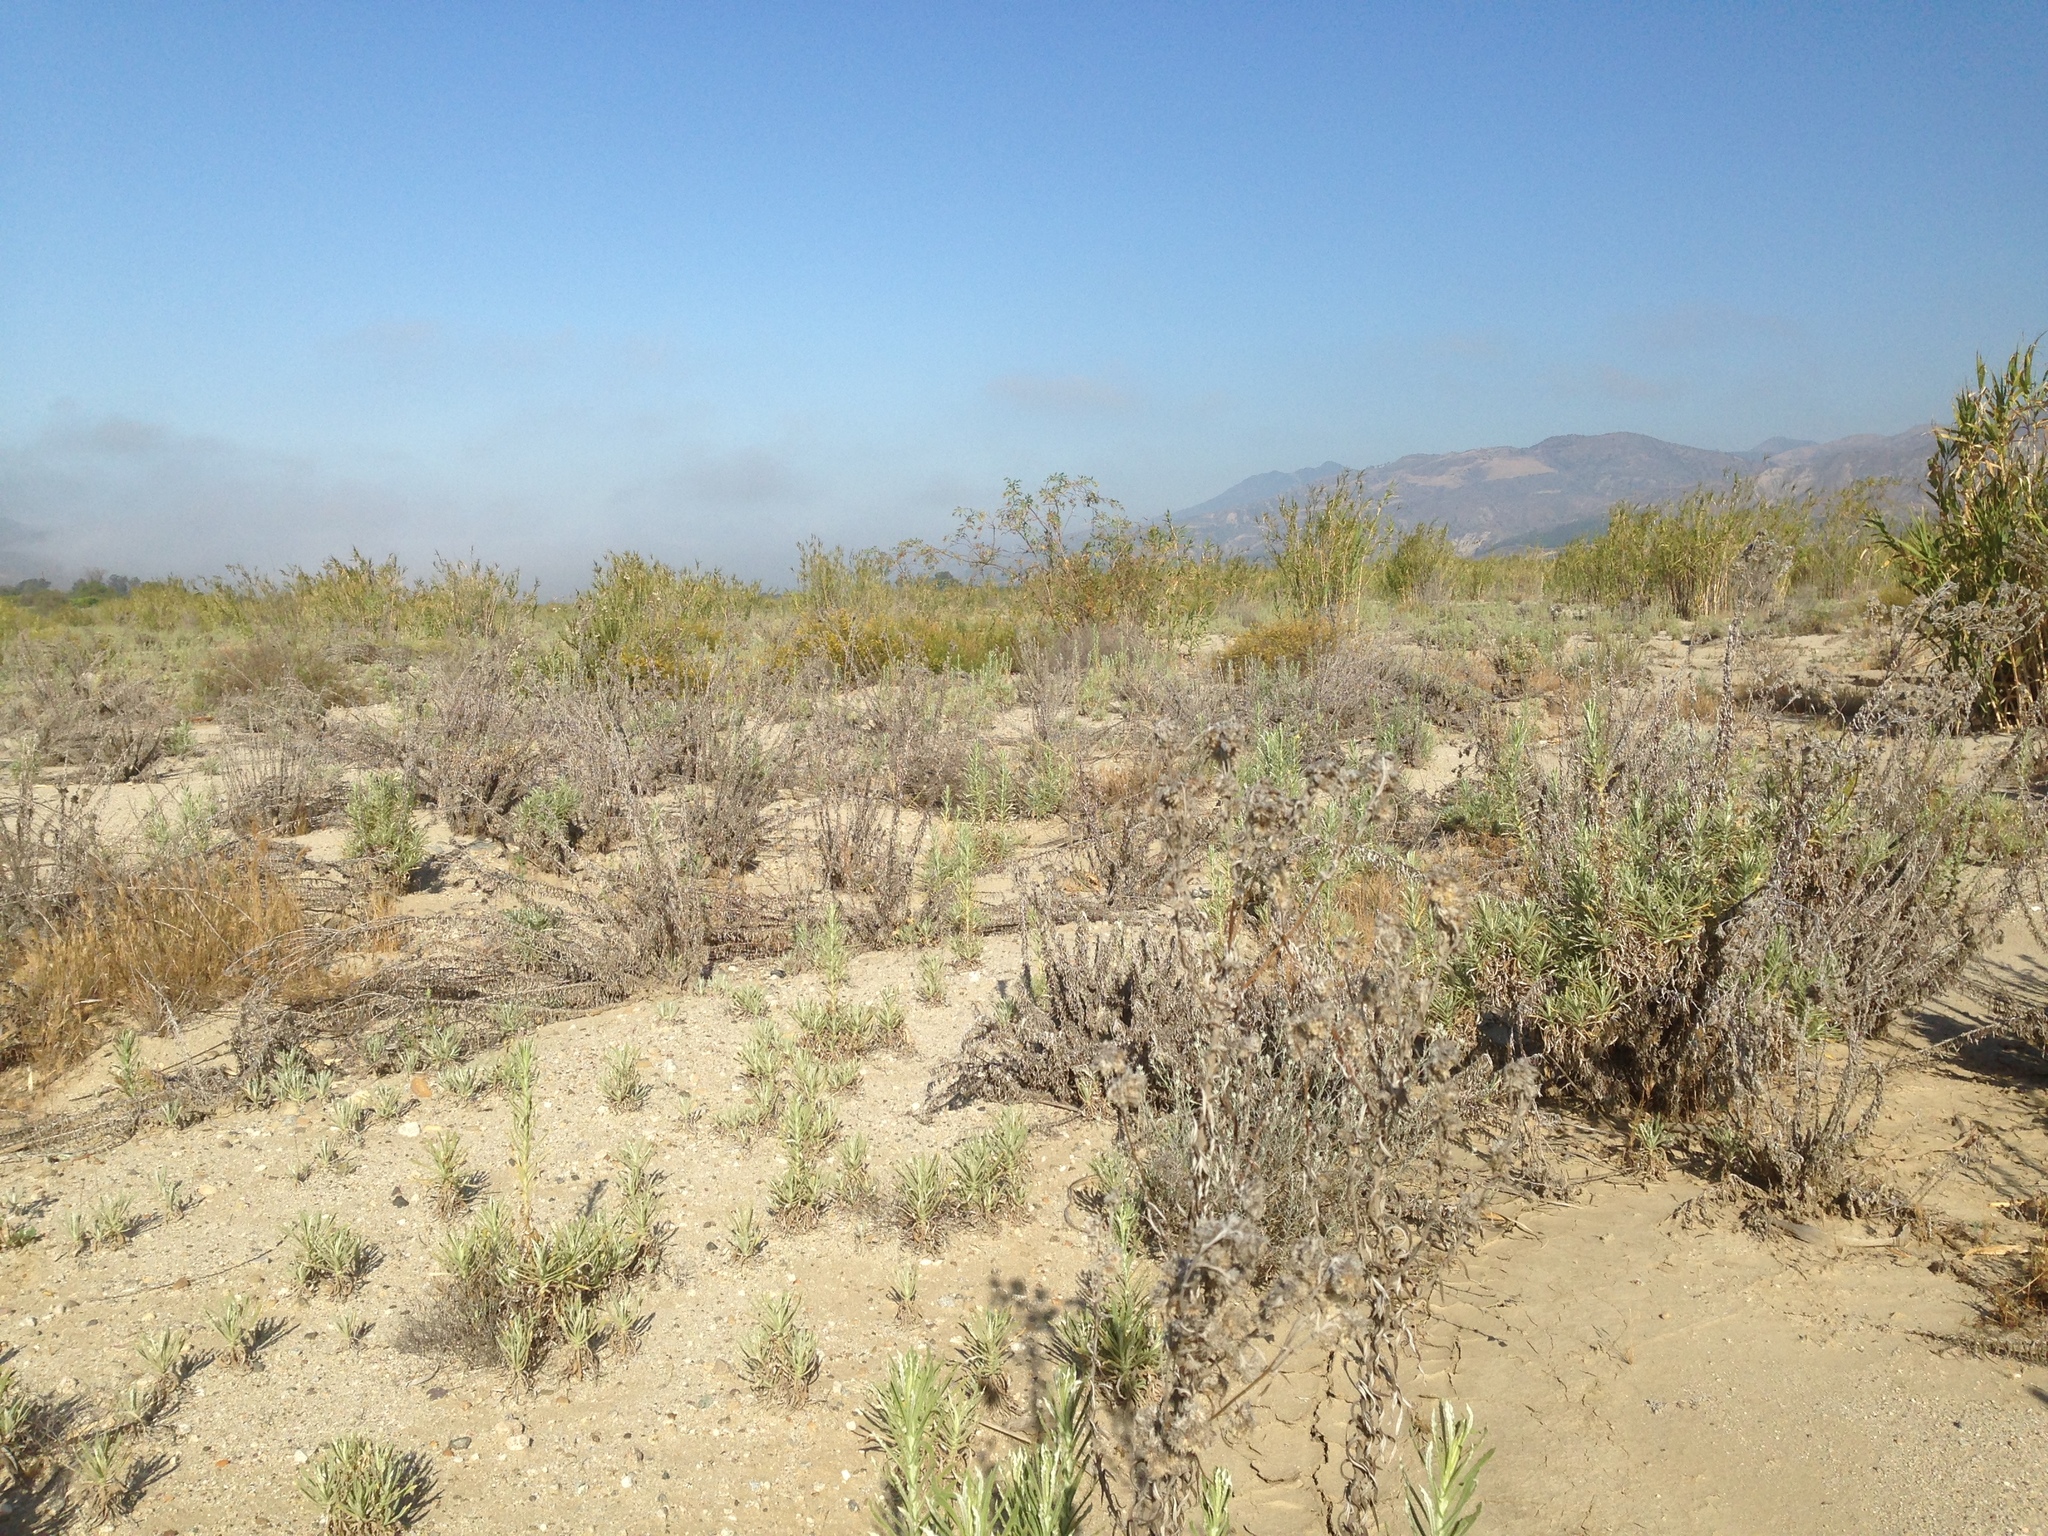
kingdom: Plantae
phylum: Tracheophyta
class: Magnoliopsida
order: Asterales
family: Asteraceae
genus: Pseudognaphalium
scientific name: Pseudognaphalium leucocephalum
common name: White cudweed
